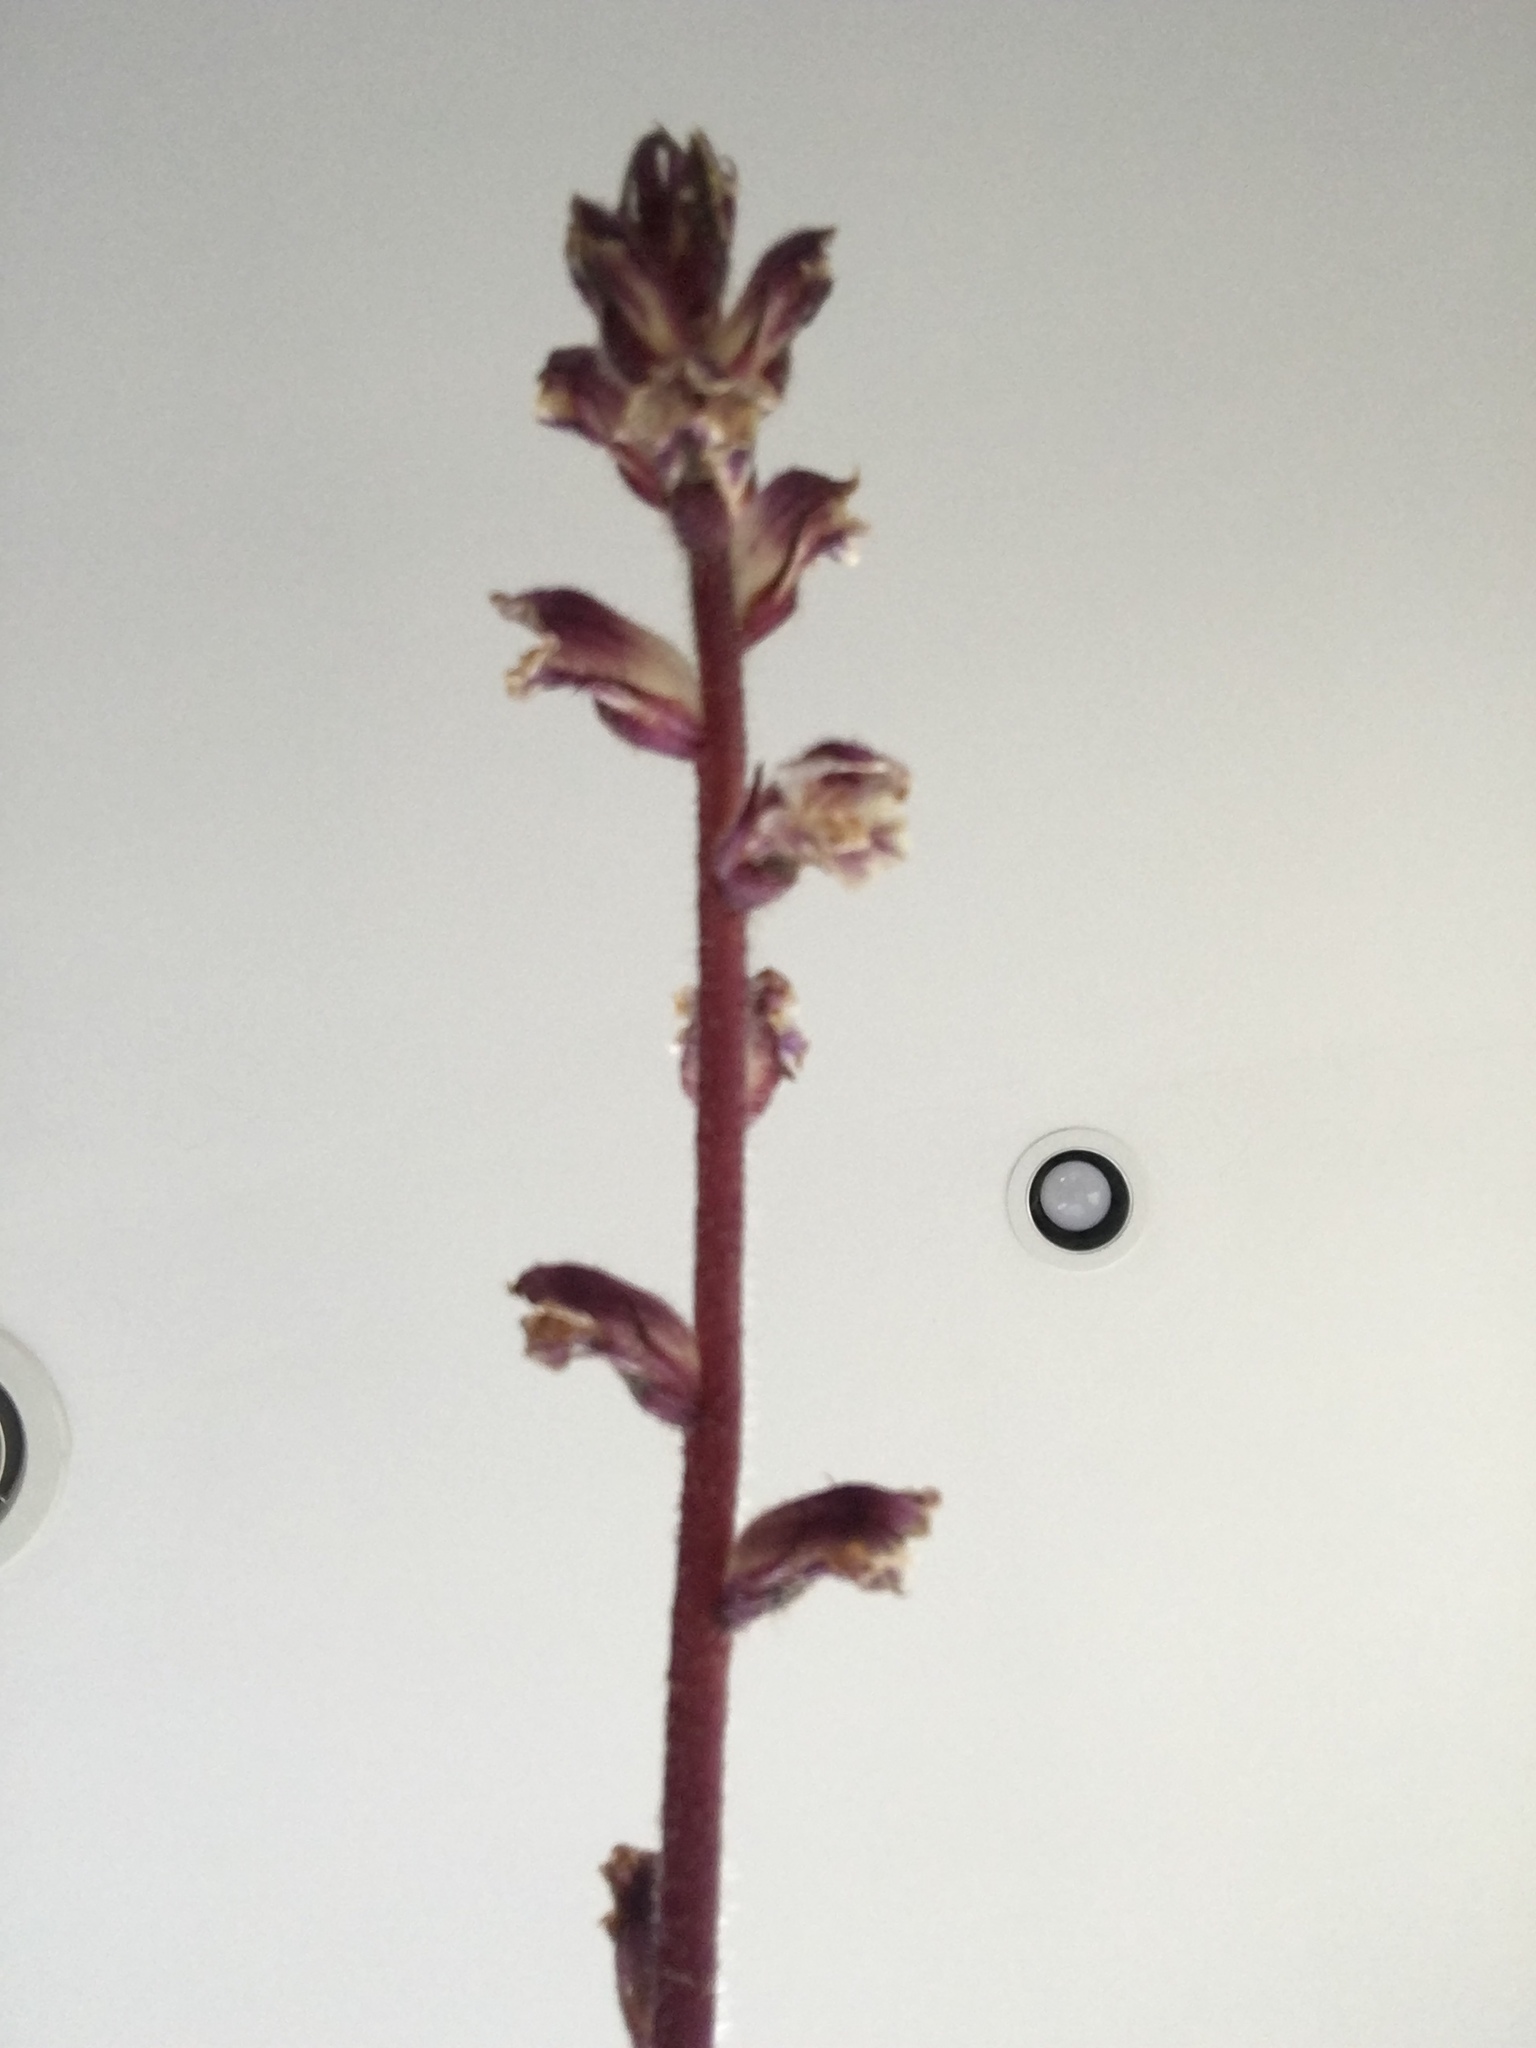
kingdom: Plantae
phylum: Tracheophyta
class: Magnoliopsida
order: Lamiales
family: Orobanchaceae
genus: Orobanche
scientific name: Orobanche minor
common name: Common broomrape
